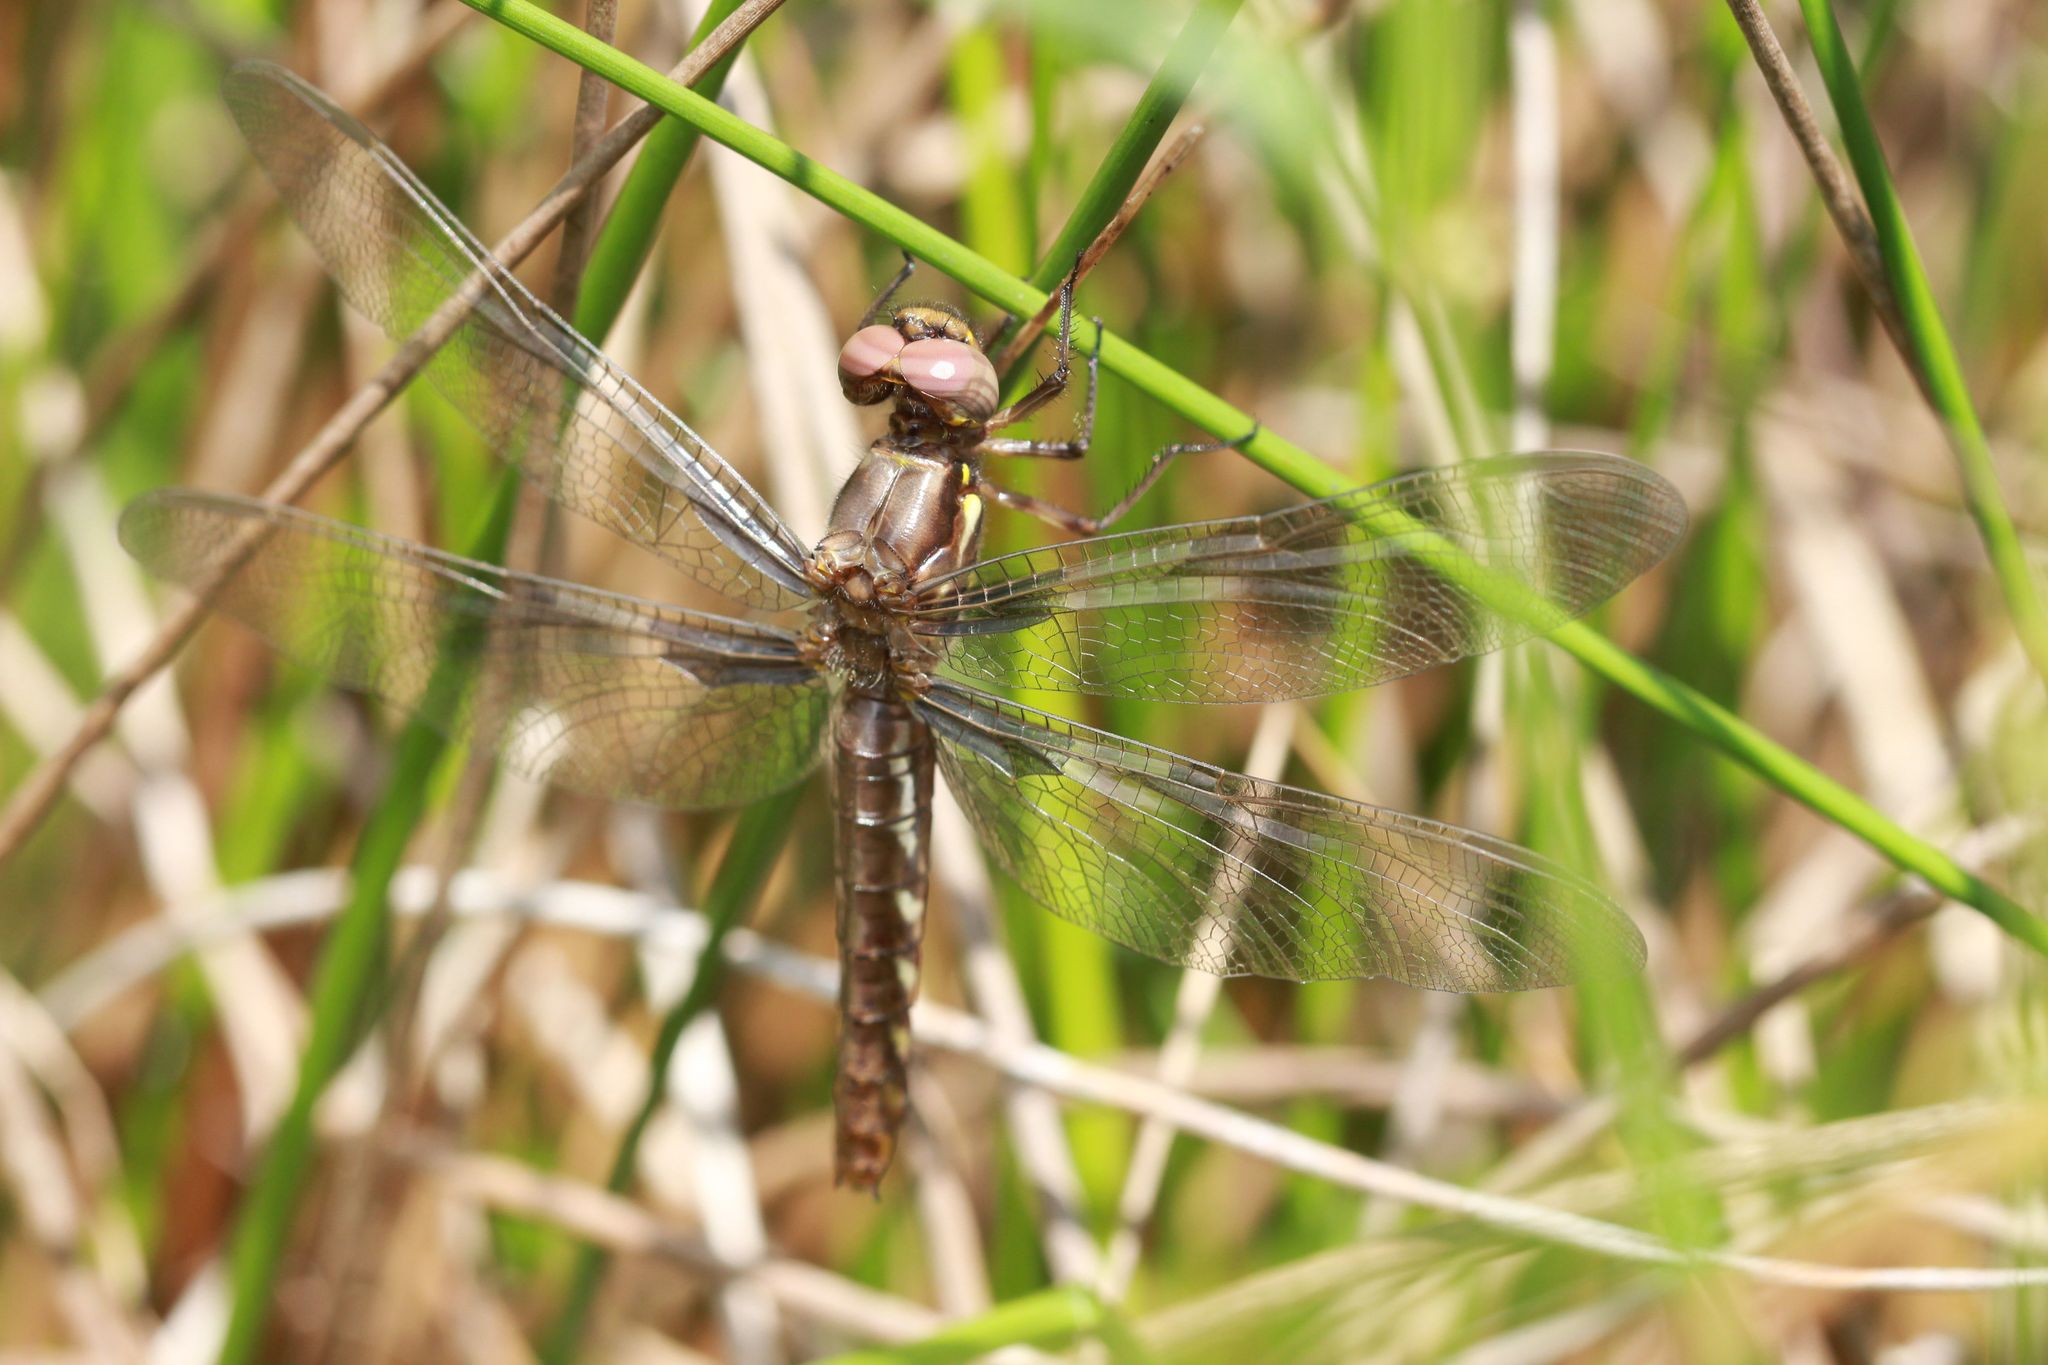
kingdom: Animalia
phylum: Arthropoda
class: Insecta
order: Odonata
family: Libellulidae
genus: Plathemis
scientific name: Plathemis lydia
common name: Common whitetail
